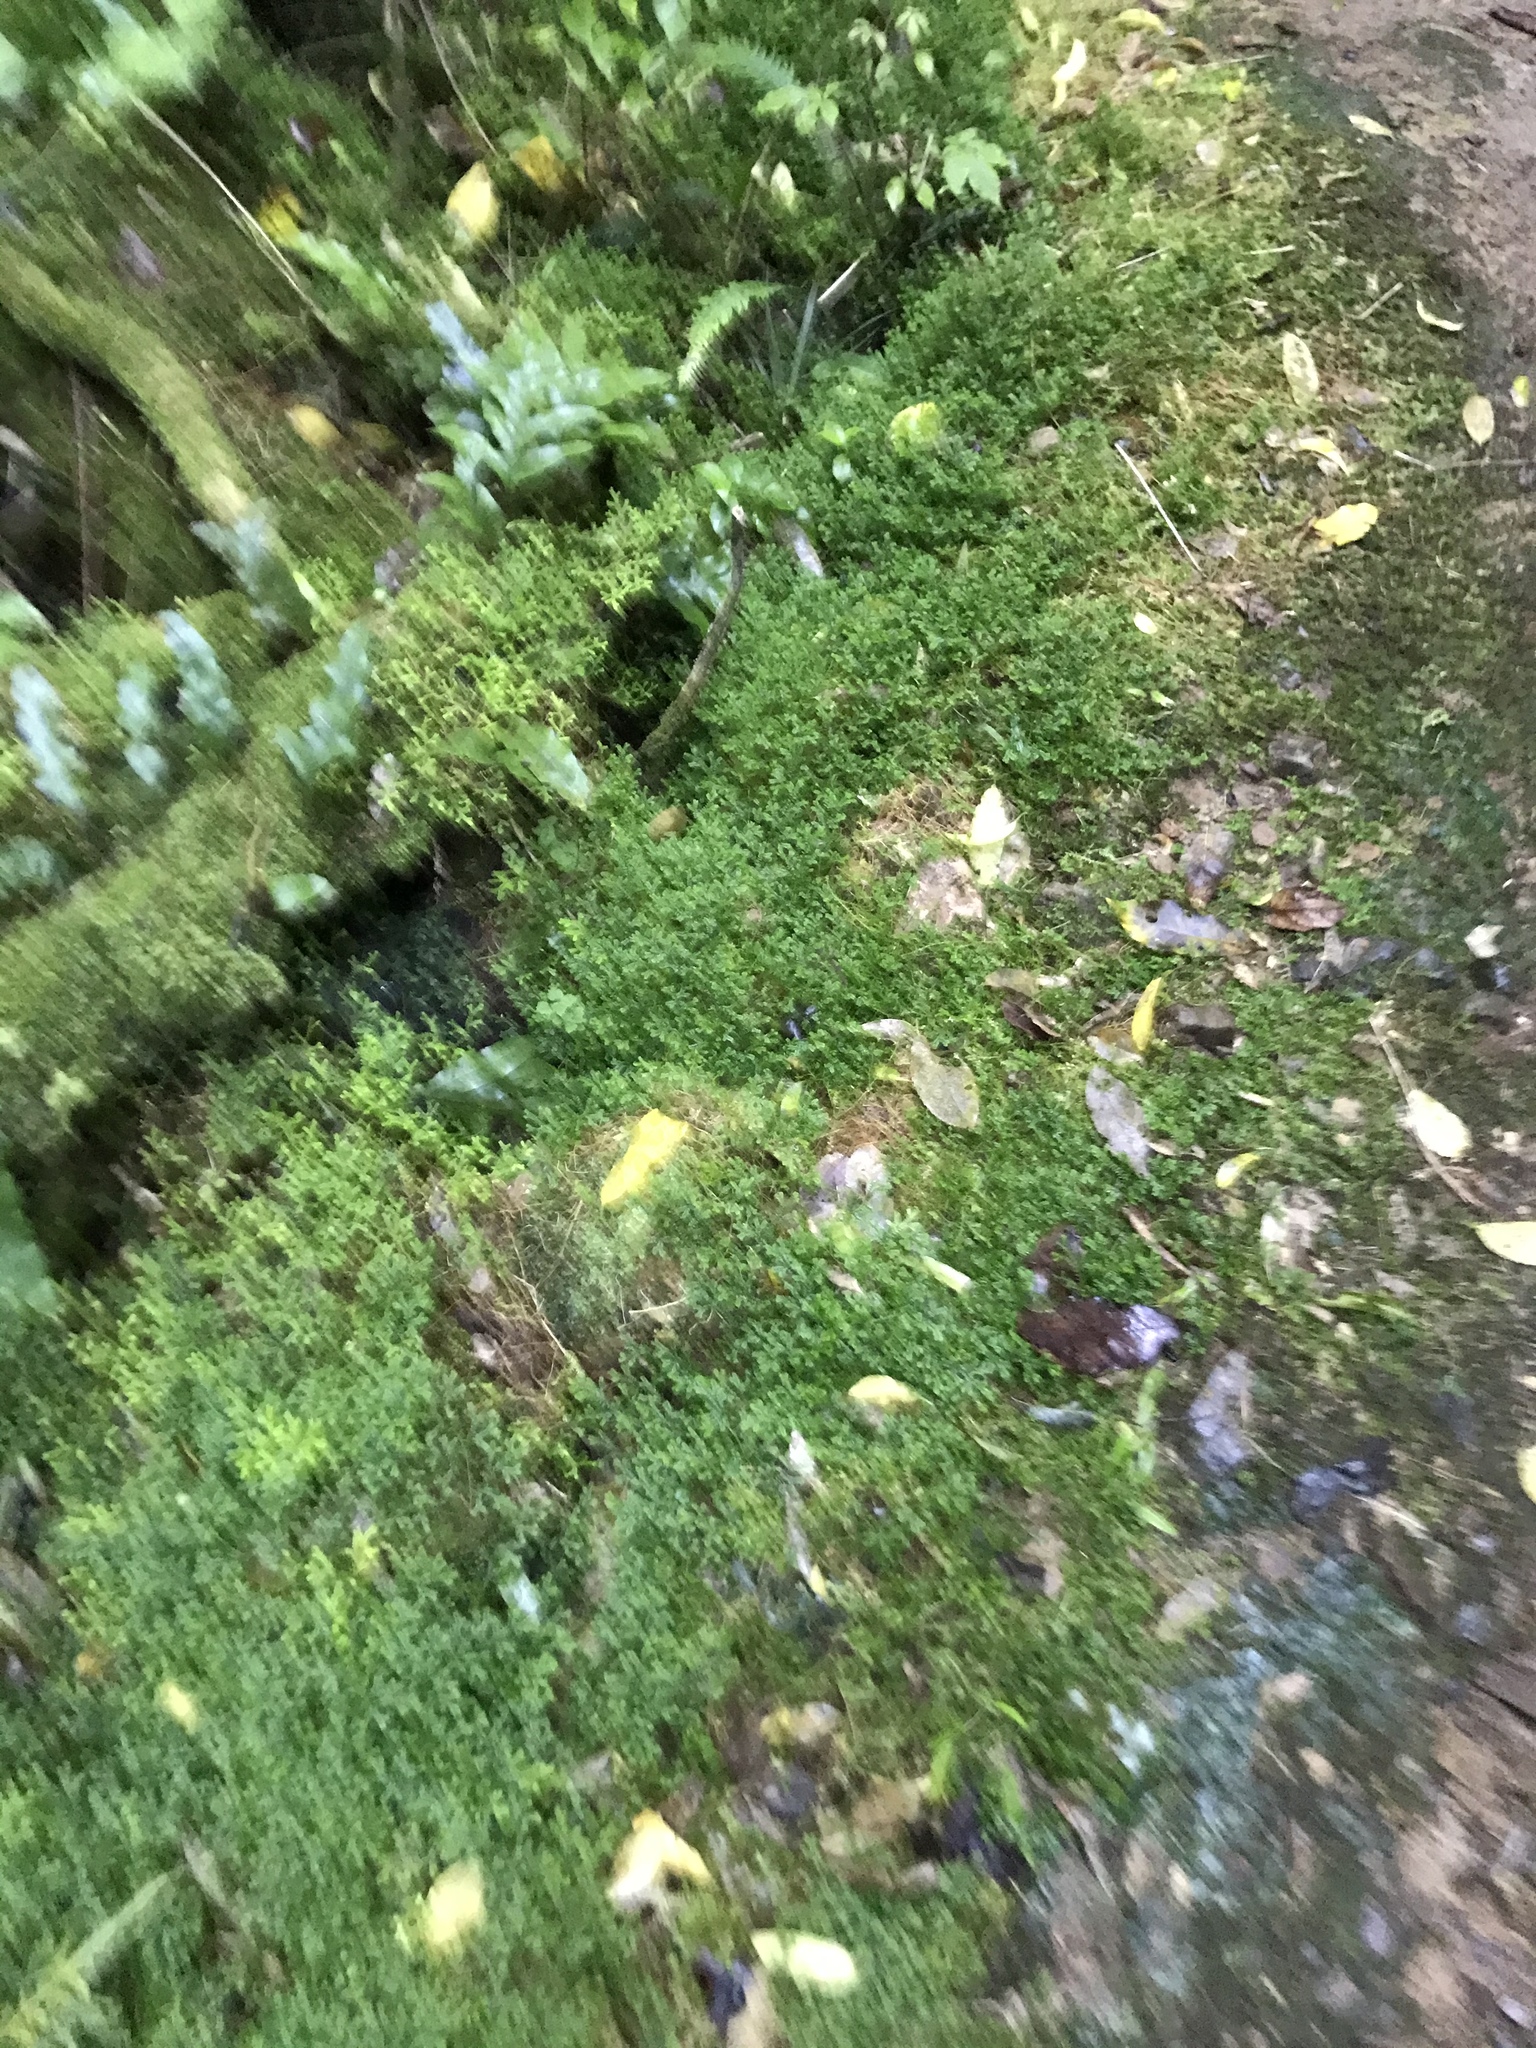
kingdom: Plantae
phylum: Tracheophyta
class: Lycopodiopsida
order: Selaginellales
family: Selaginellaceae
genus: Selaginella
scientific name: Selaginella kraussiana
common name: Krauss' spikemoss
